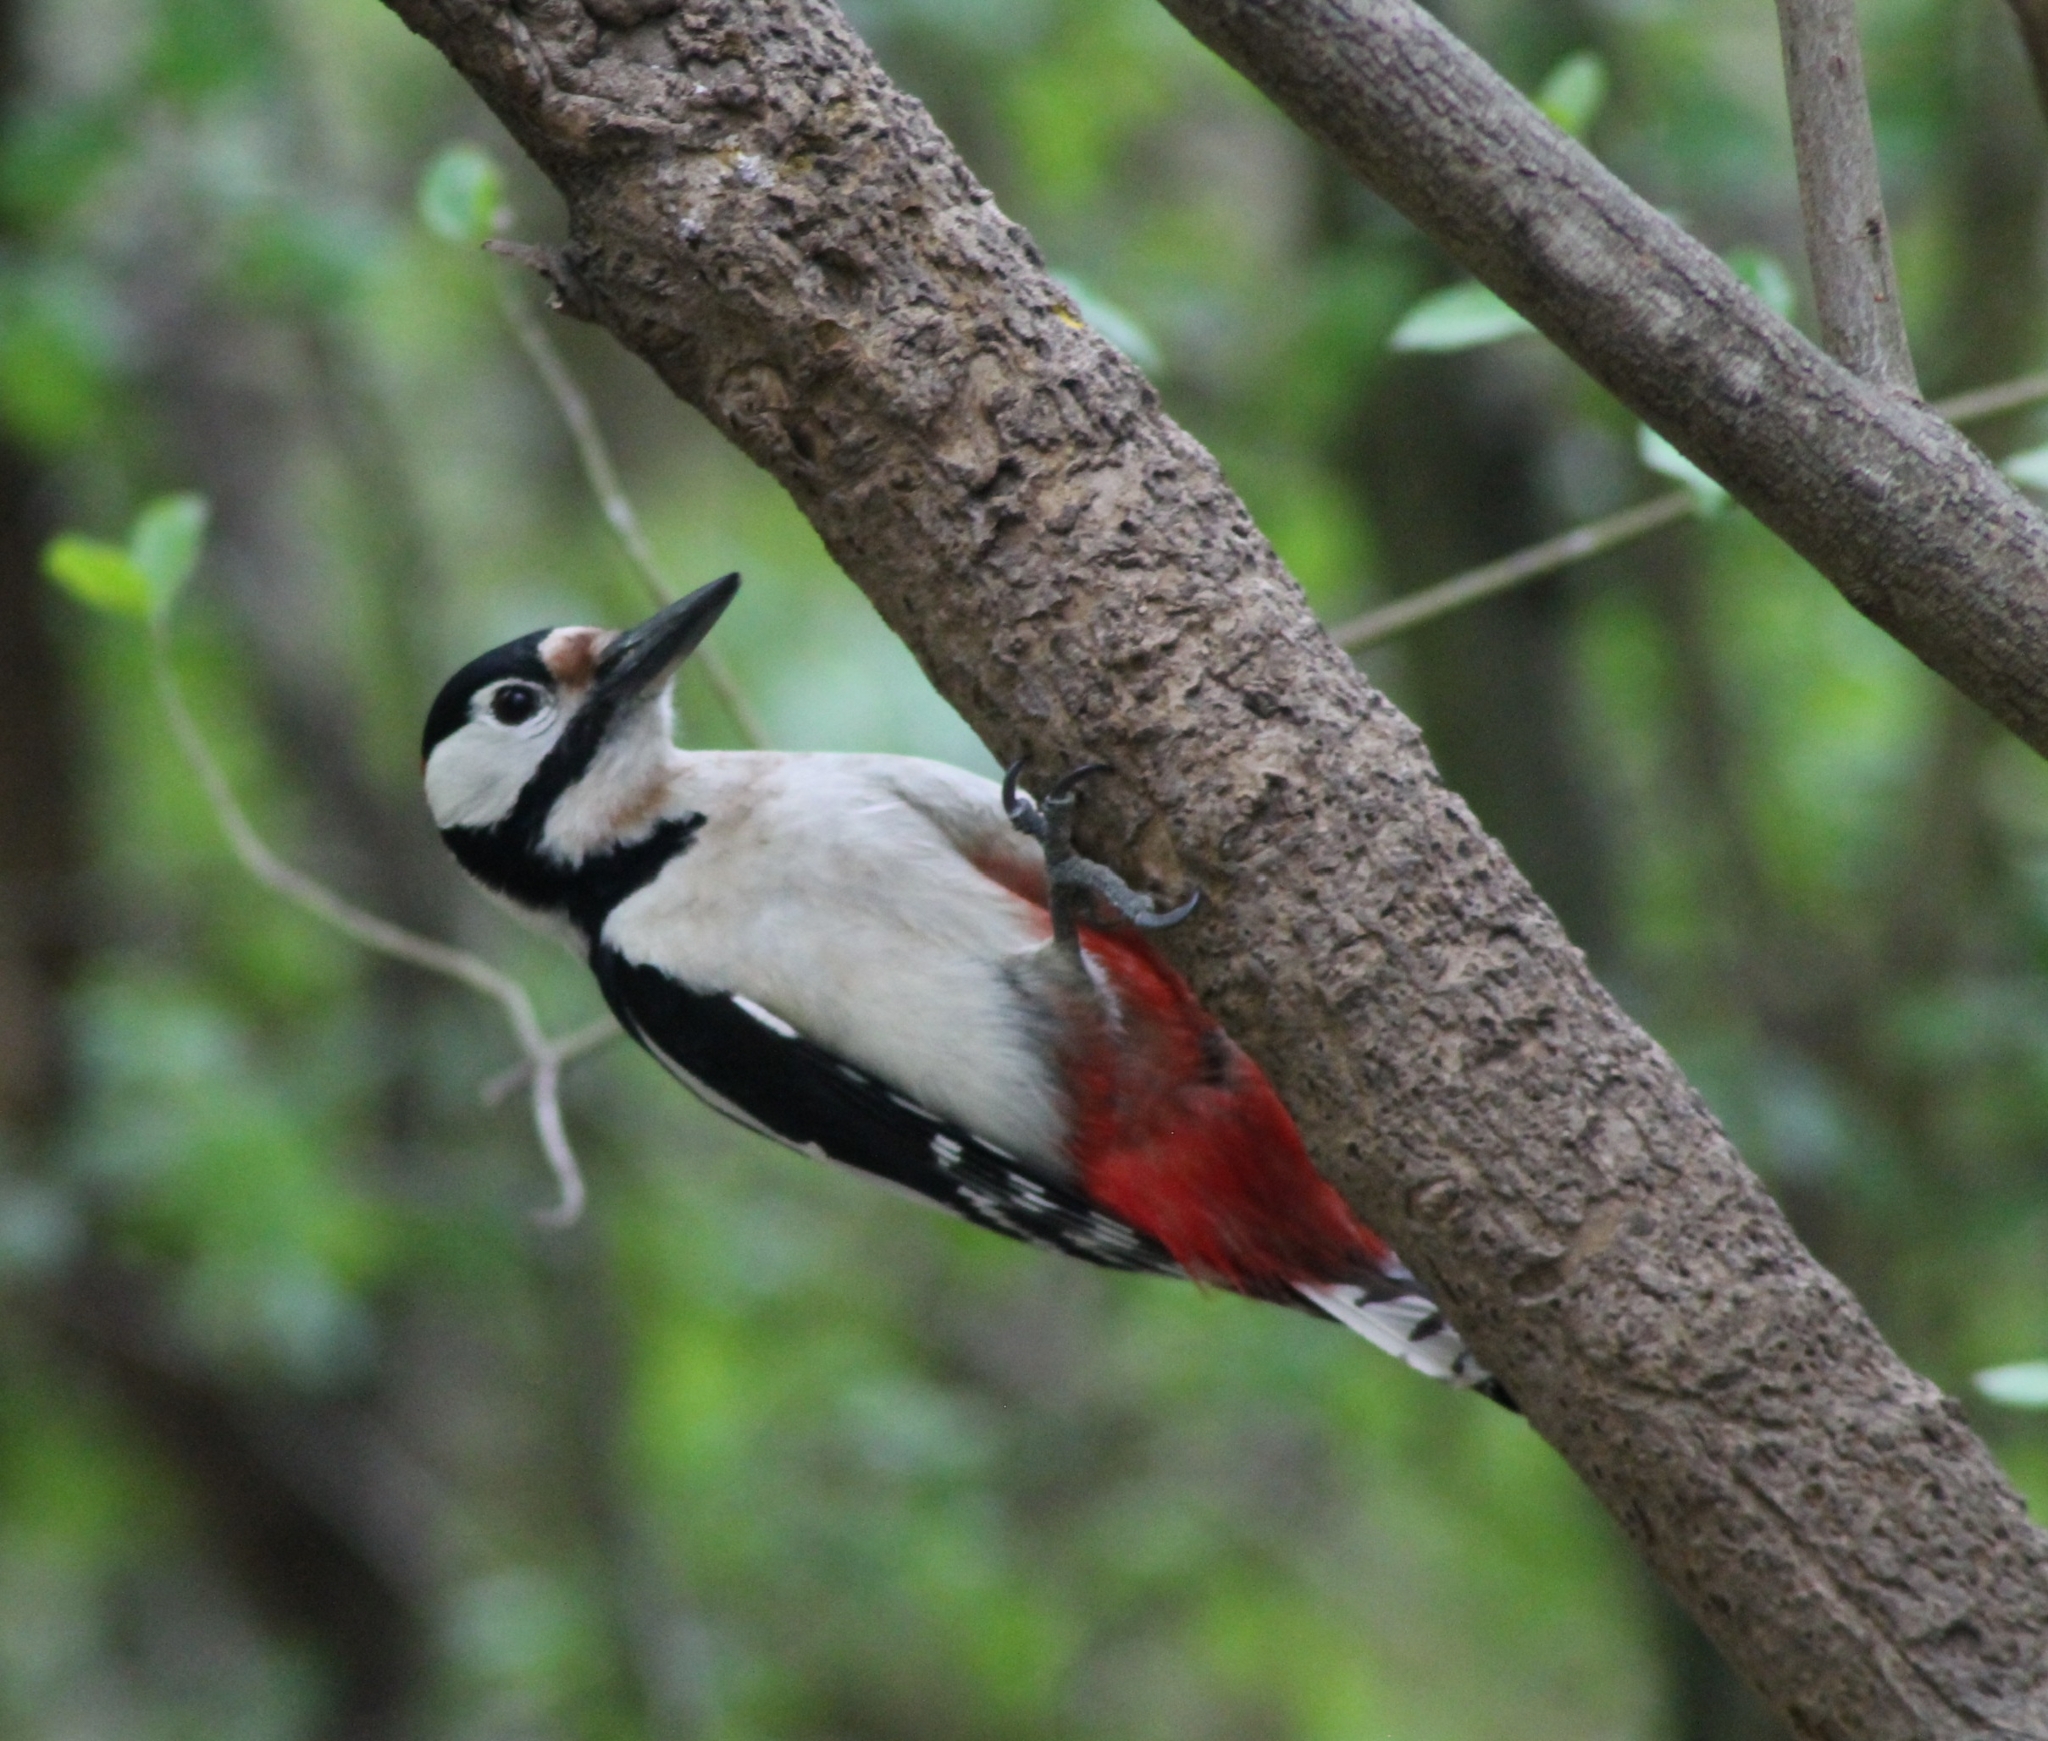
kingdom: Animalia
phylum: Chordata
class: Aves
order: Piciformes
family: Picidae
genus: Dendrocopos
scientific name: Dendrocopos major
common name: Great spotted woodpecker
